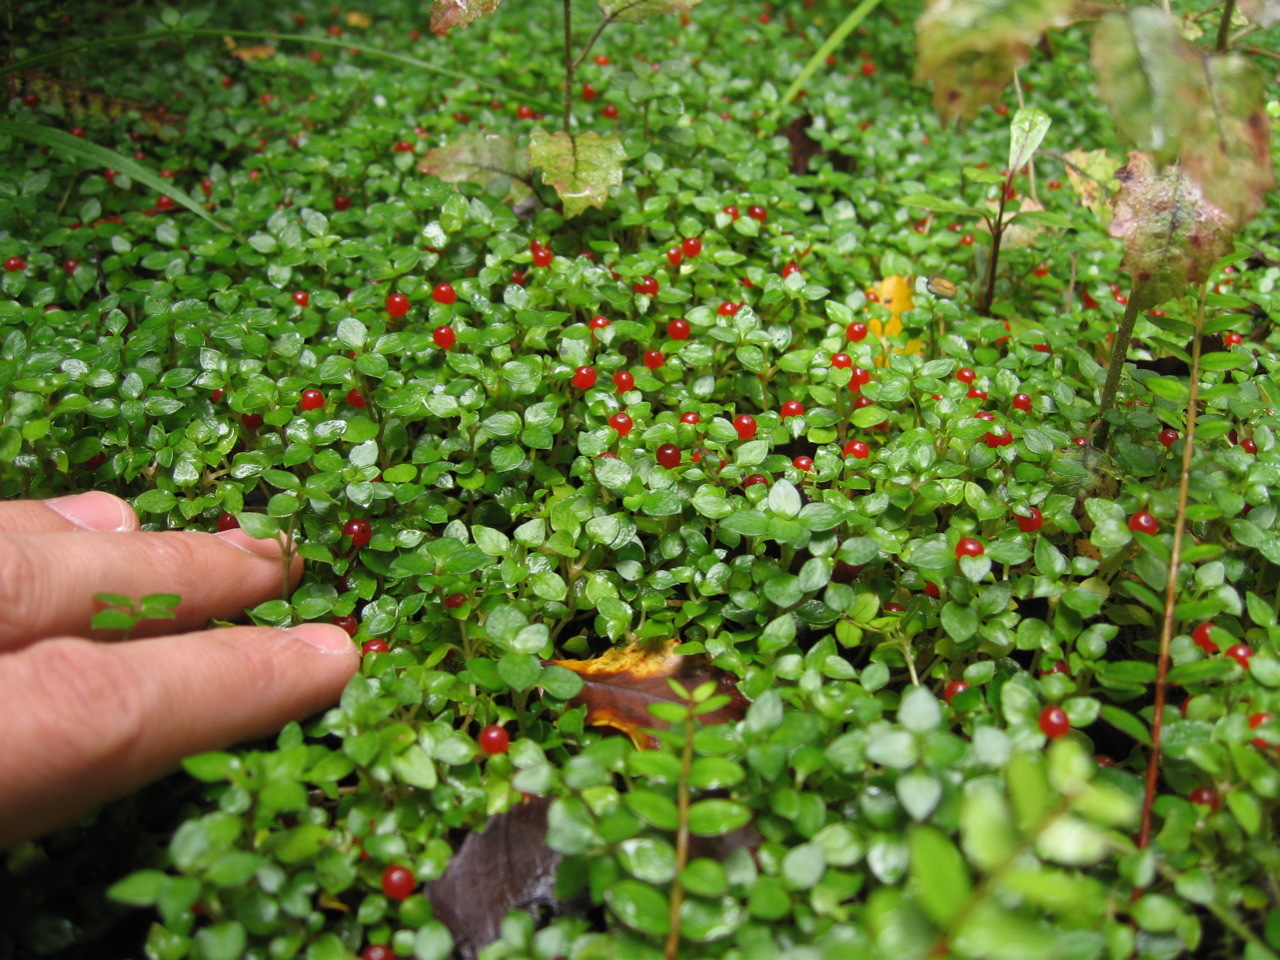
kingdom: Plantae
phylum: Tracheophyta
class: Magnoliopsida
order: Gentianales
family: Rubiaceae
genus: Nertera
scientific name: Nertera granadensis
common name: Beadplant
